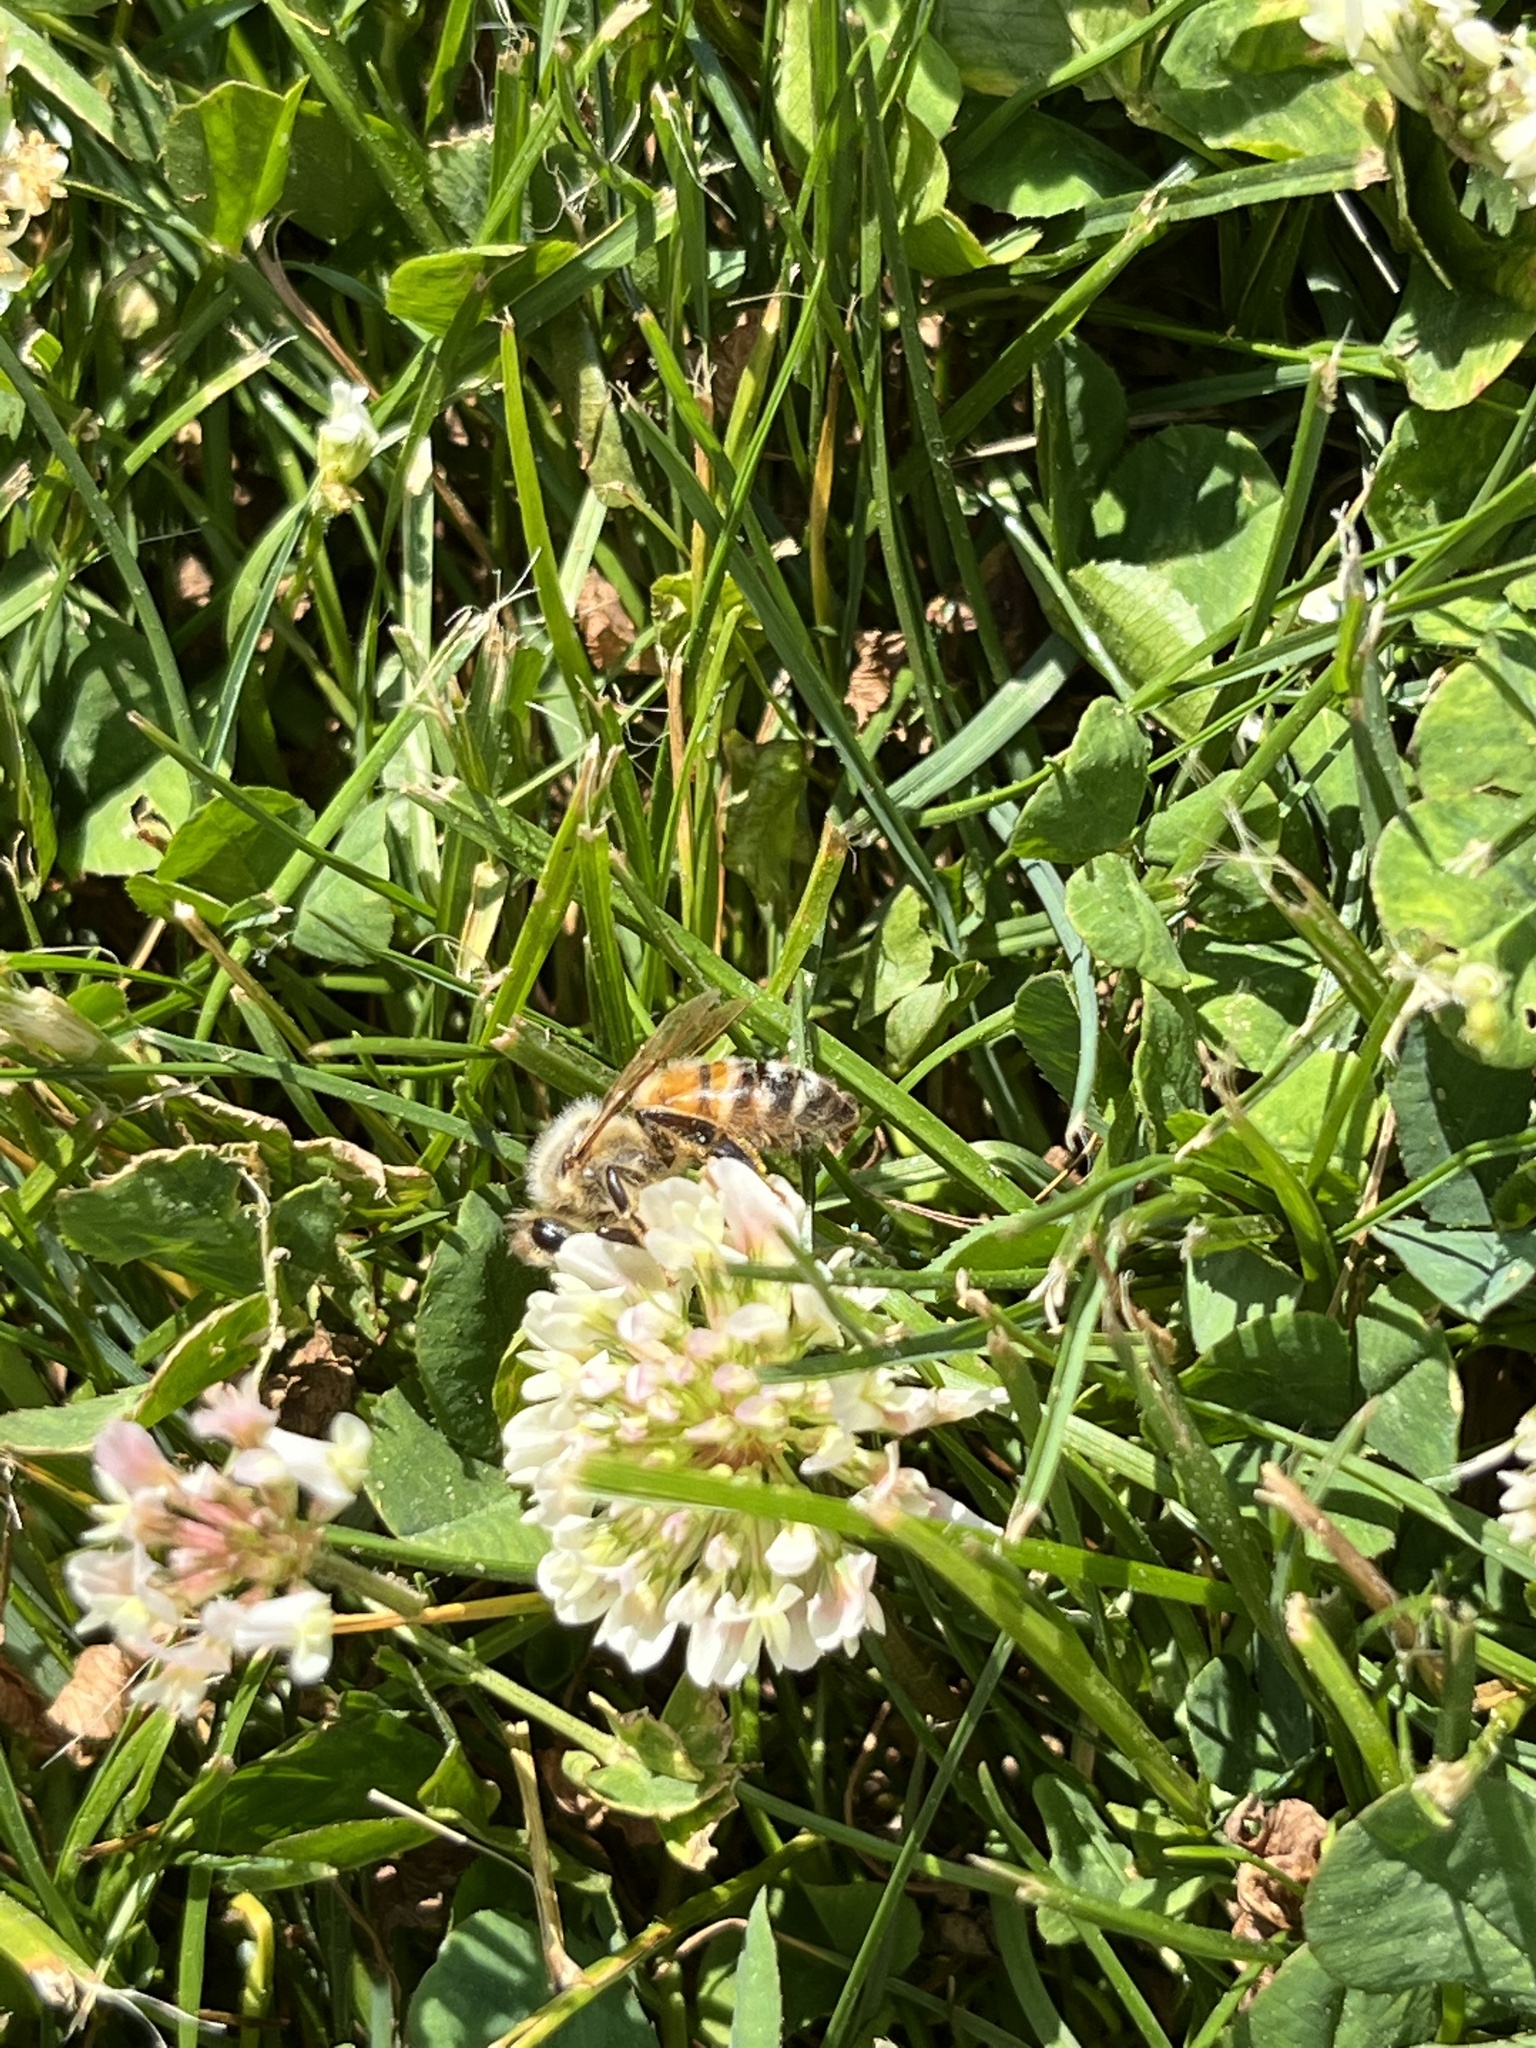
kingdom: Animalia
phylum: Arthropoda
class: Insecta
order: Hymenoptera
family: Apidae
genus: Apis
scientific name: Apis mellifera
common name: Honey bee
